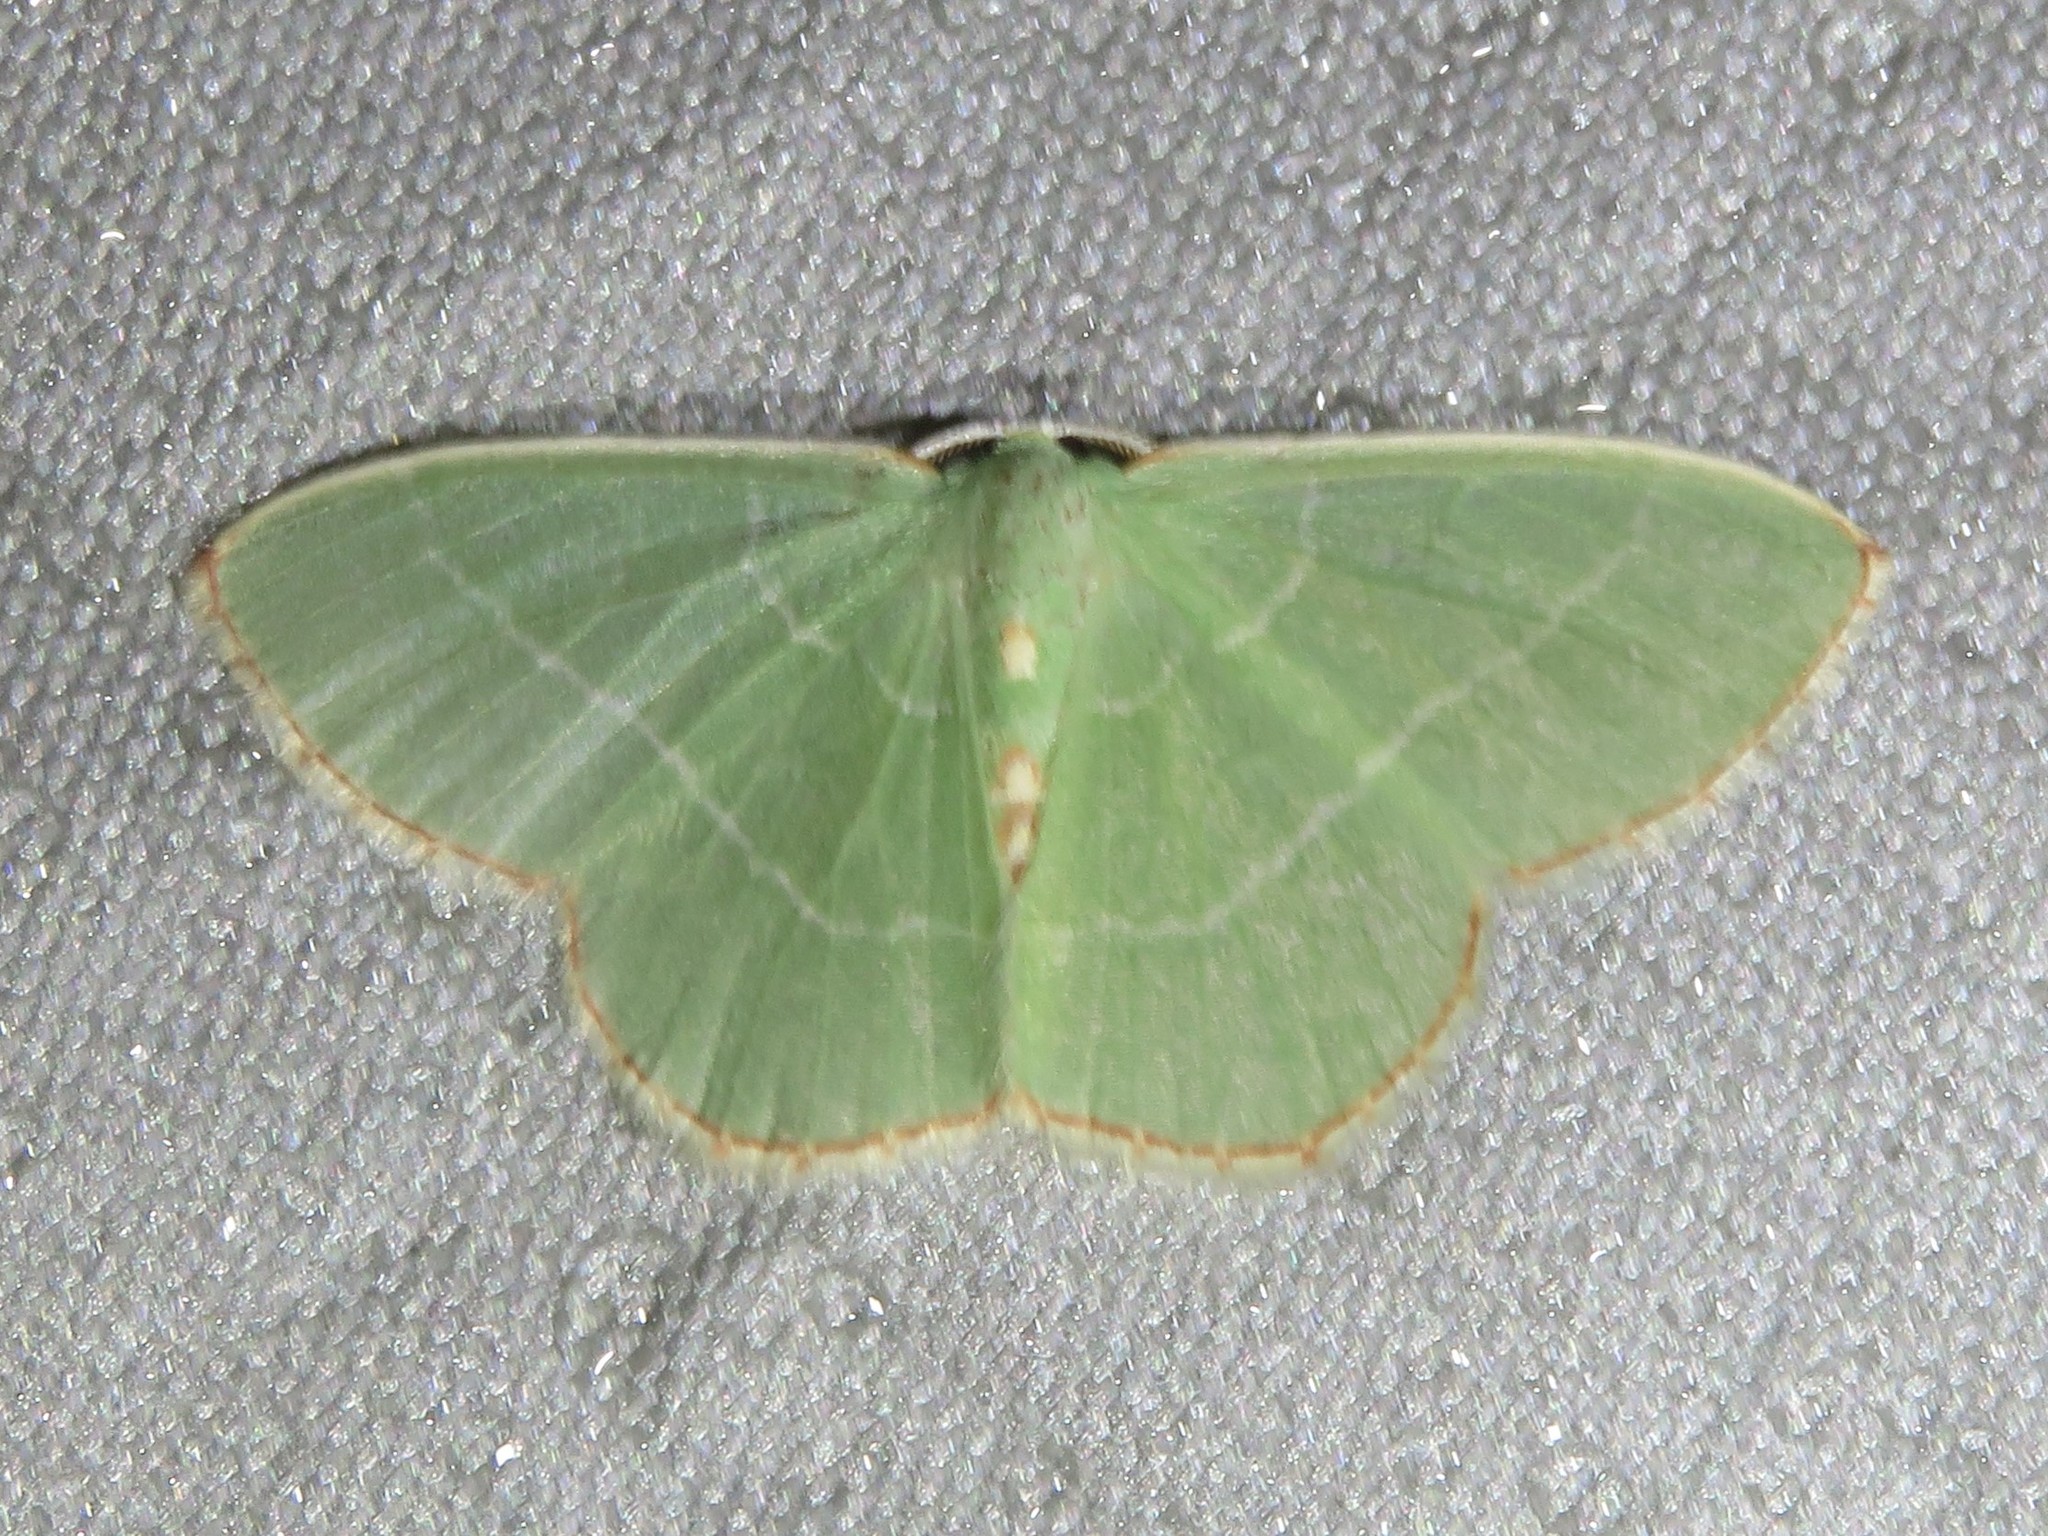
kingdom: Animalia
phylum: Arthropoda
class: Insecta
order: Lepidoptera
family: Geometridae
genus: Nemoria
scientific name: Nemoria bistriaria
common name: Red-fringed emerald
